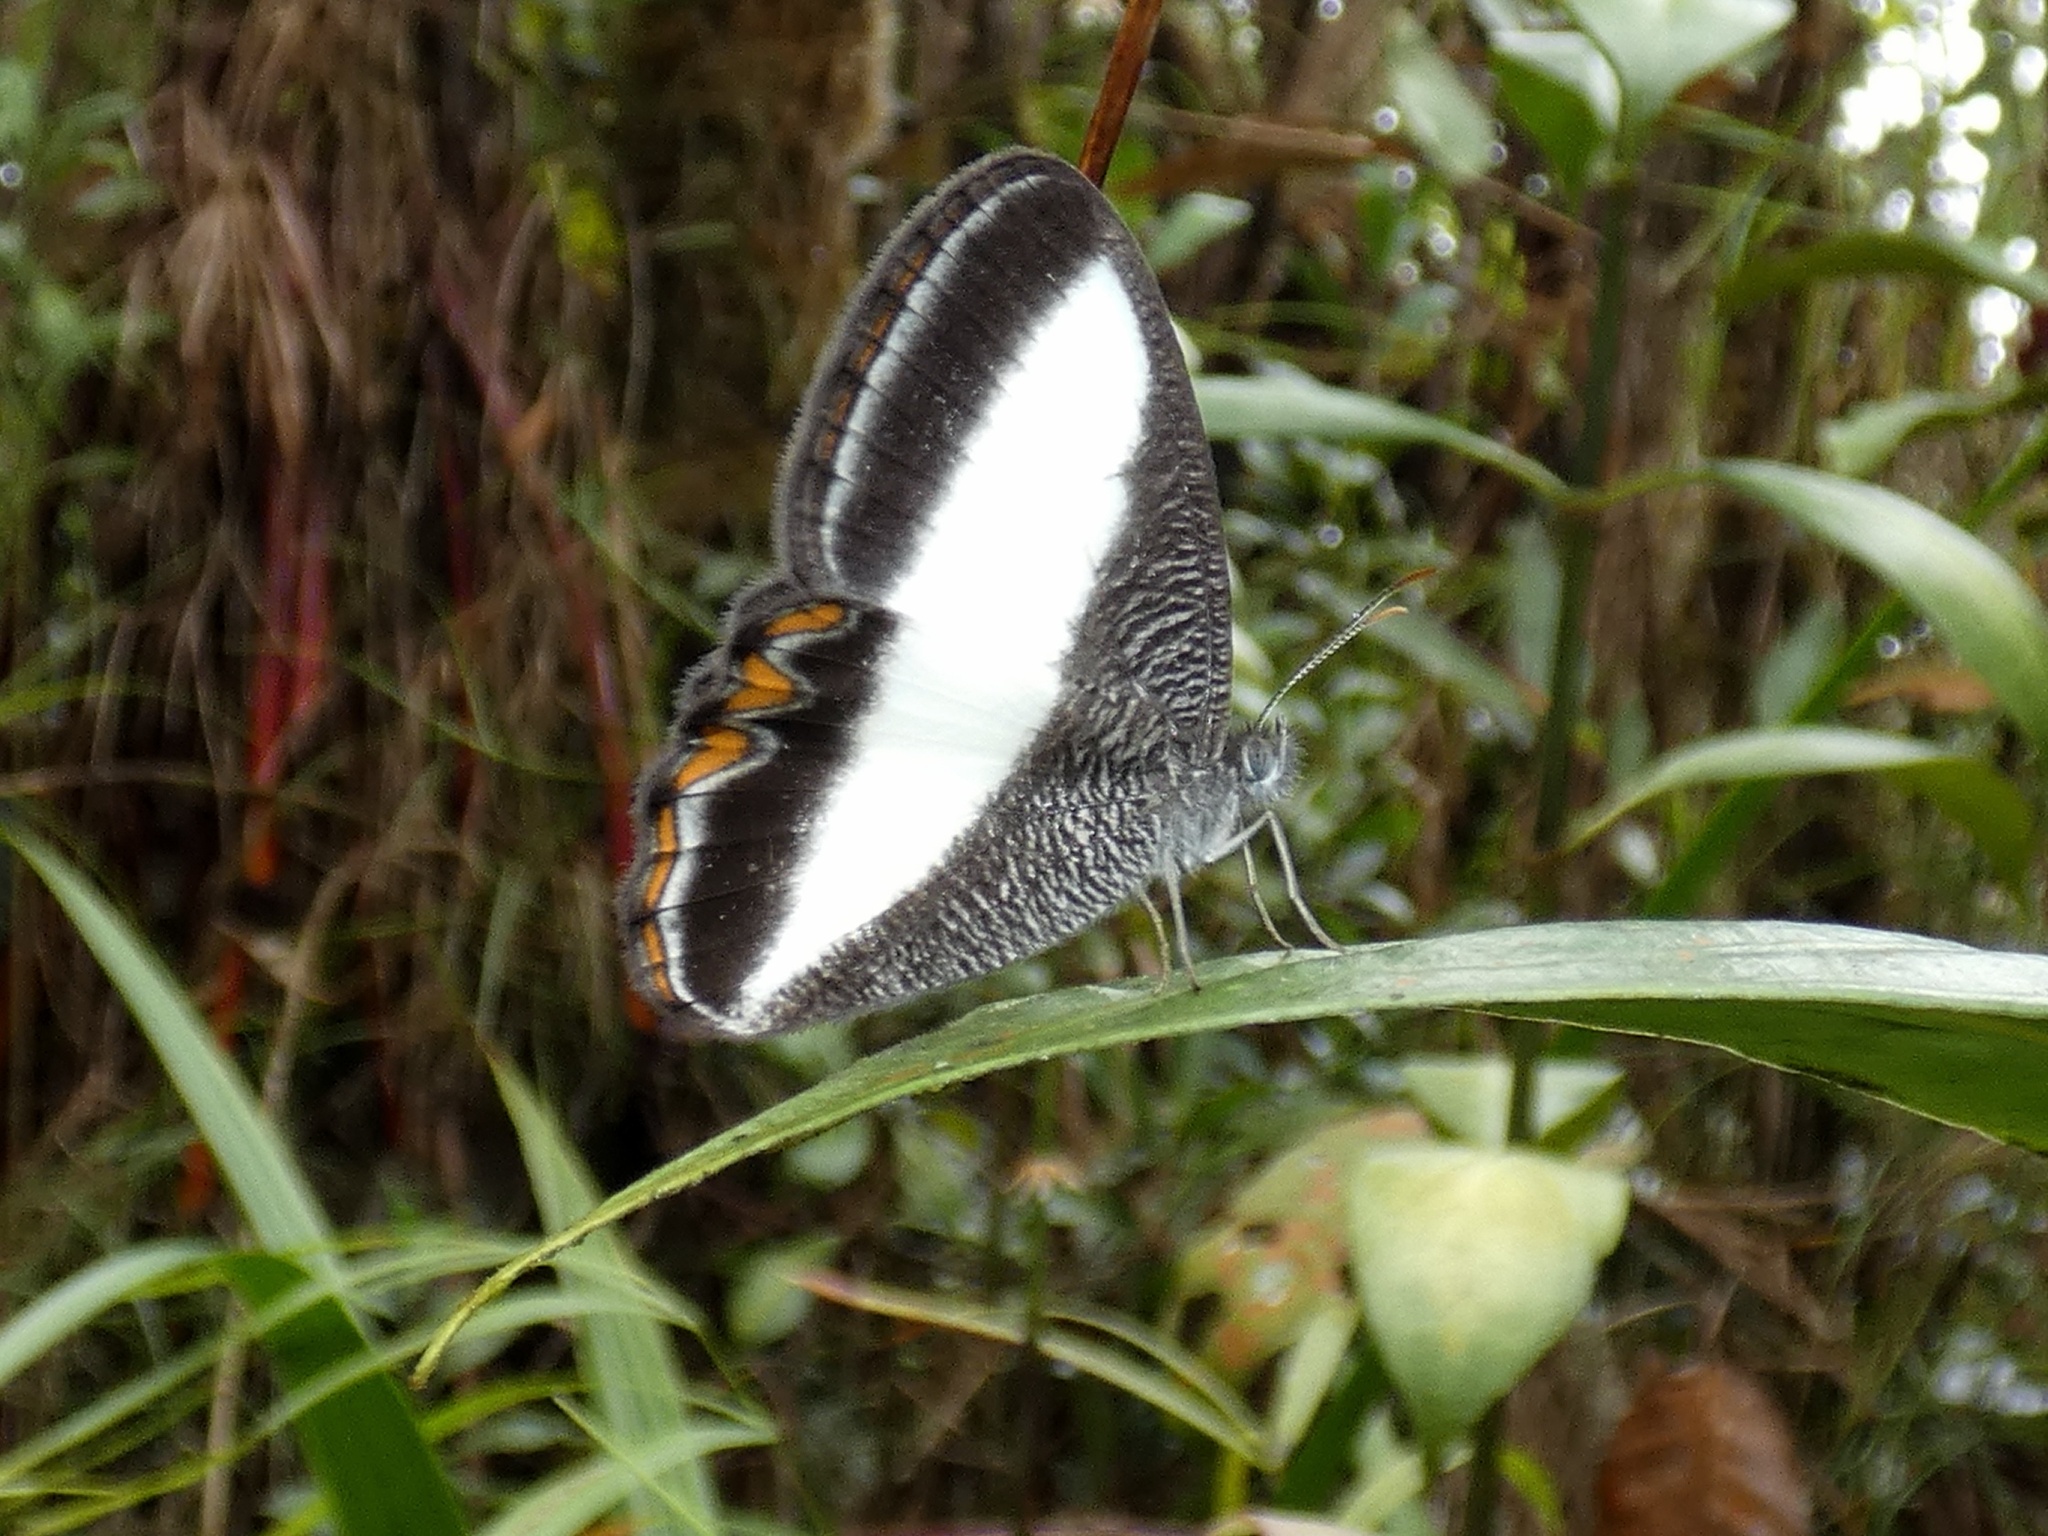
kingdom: Animalia
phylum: Arthropoda
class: Insecta
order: Lepidoptera
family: Nymphalidae
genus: Oressinoma
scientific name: Oressinoma typhla
